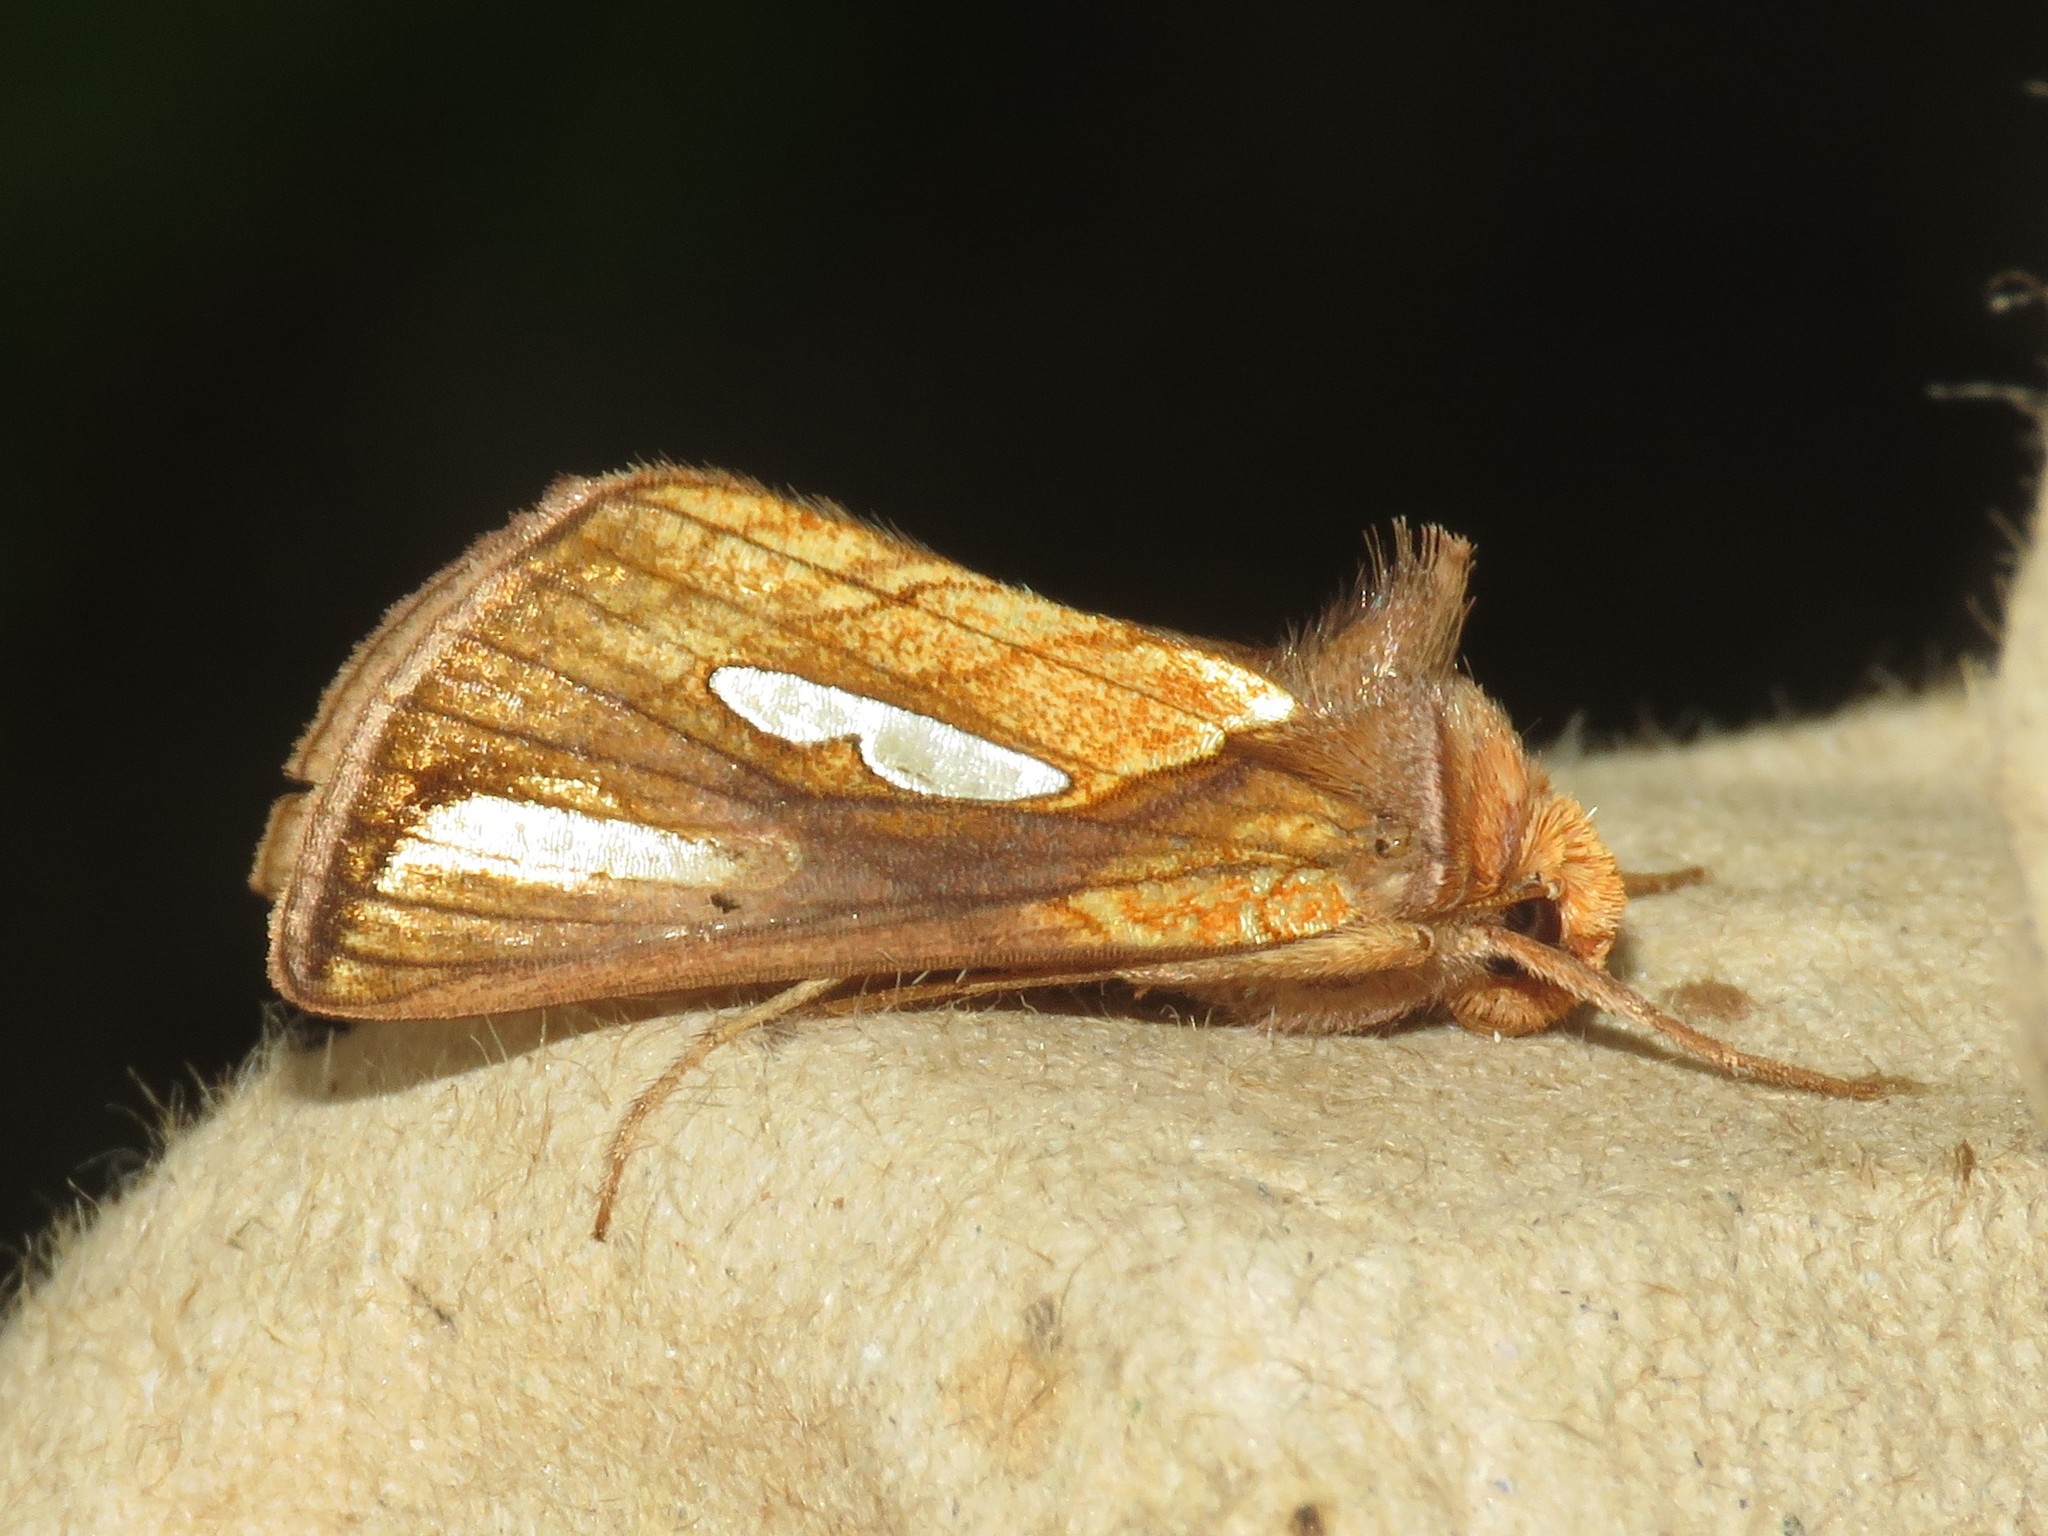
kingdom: Animalia
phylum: Arthropoda
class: Insecta
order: Lepidoptera
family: Noctuidae
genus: Plusia
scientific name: Plusia contexta
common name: Connected looper moth
